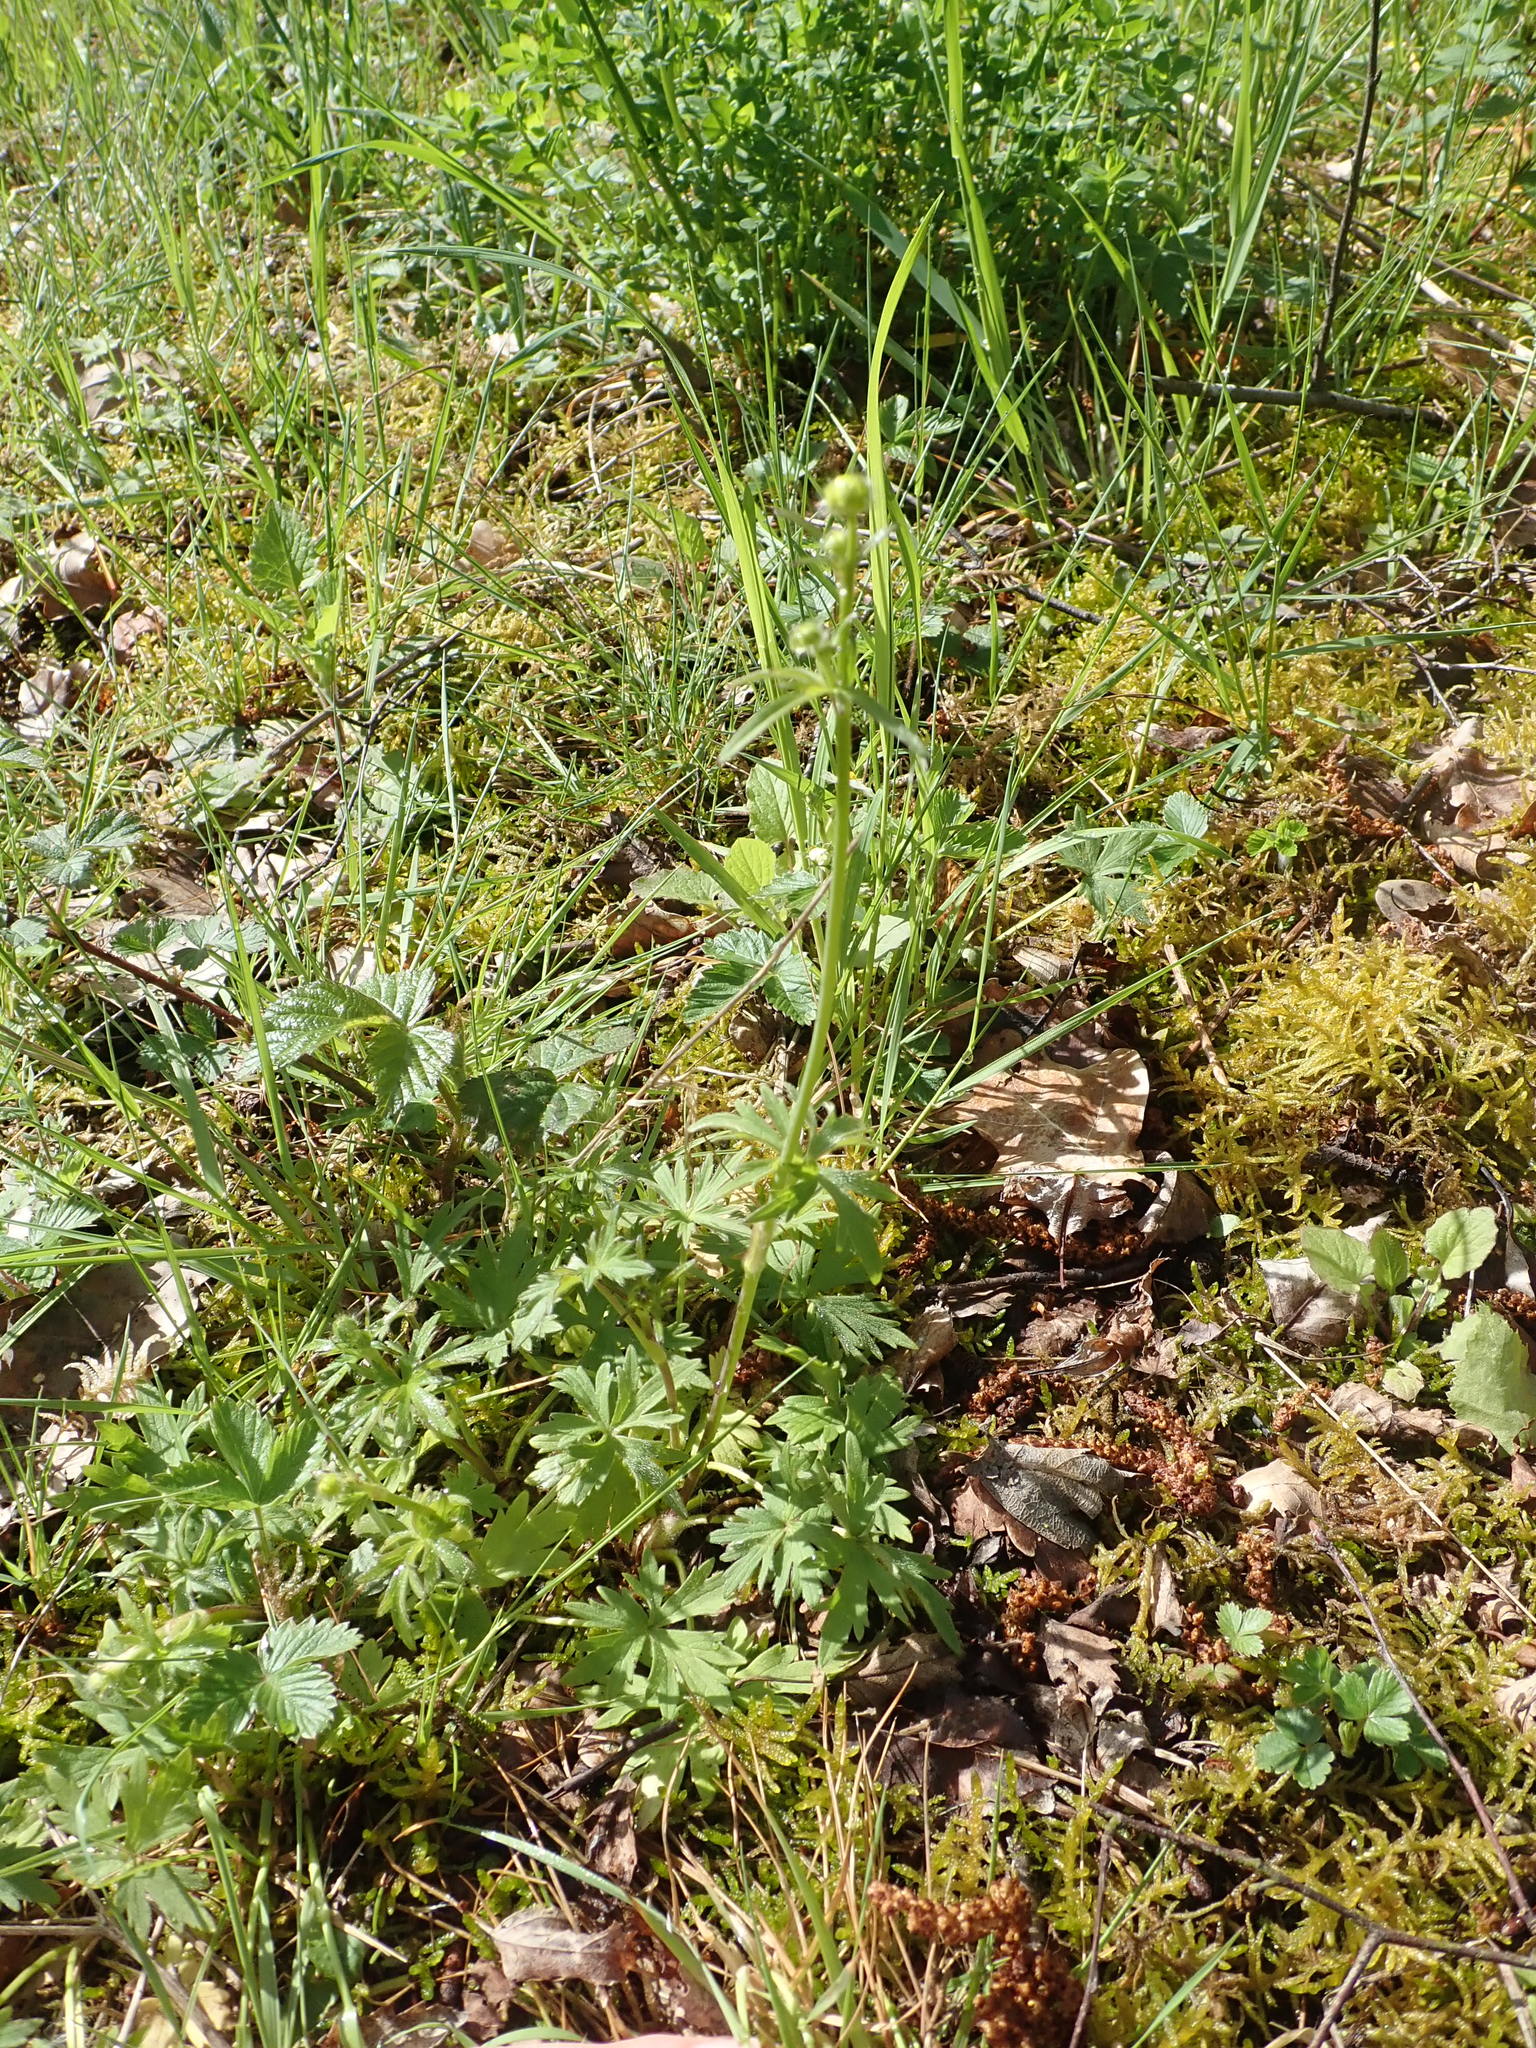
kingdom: Plantae
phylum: Tracheophyta
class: Magnoliopsida
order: Ranunculales
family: Ranunculaceae
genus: Ranunculus
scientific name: Ranunculus acris
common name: Meadow buttercup
